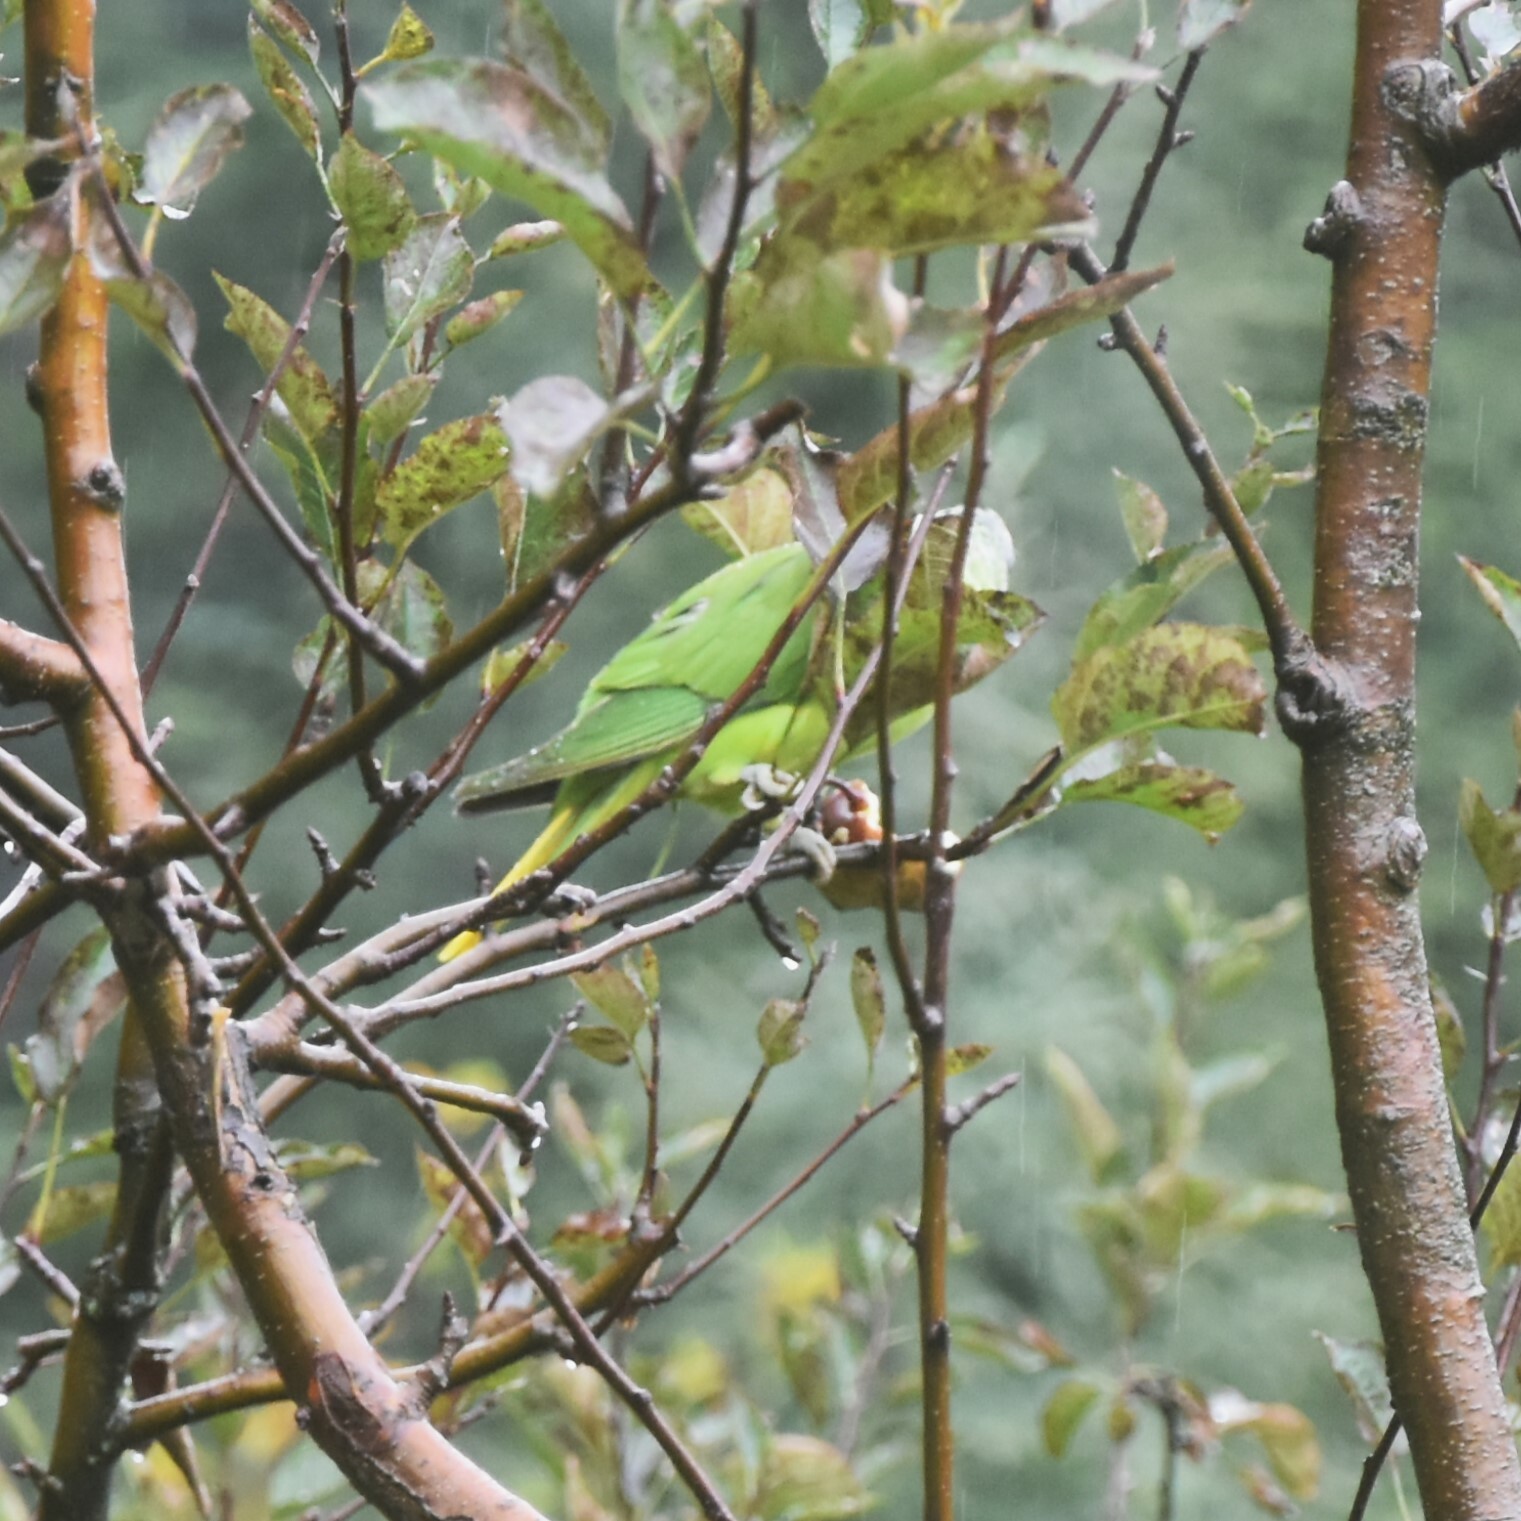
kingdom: Animalia
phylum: Chordata
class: Aves
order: Psittaciformes
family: Psittacidae
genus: Psittacula
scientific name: Psittacula himalayana
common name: Slaty-headed parakeet
